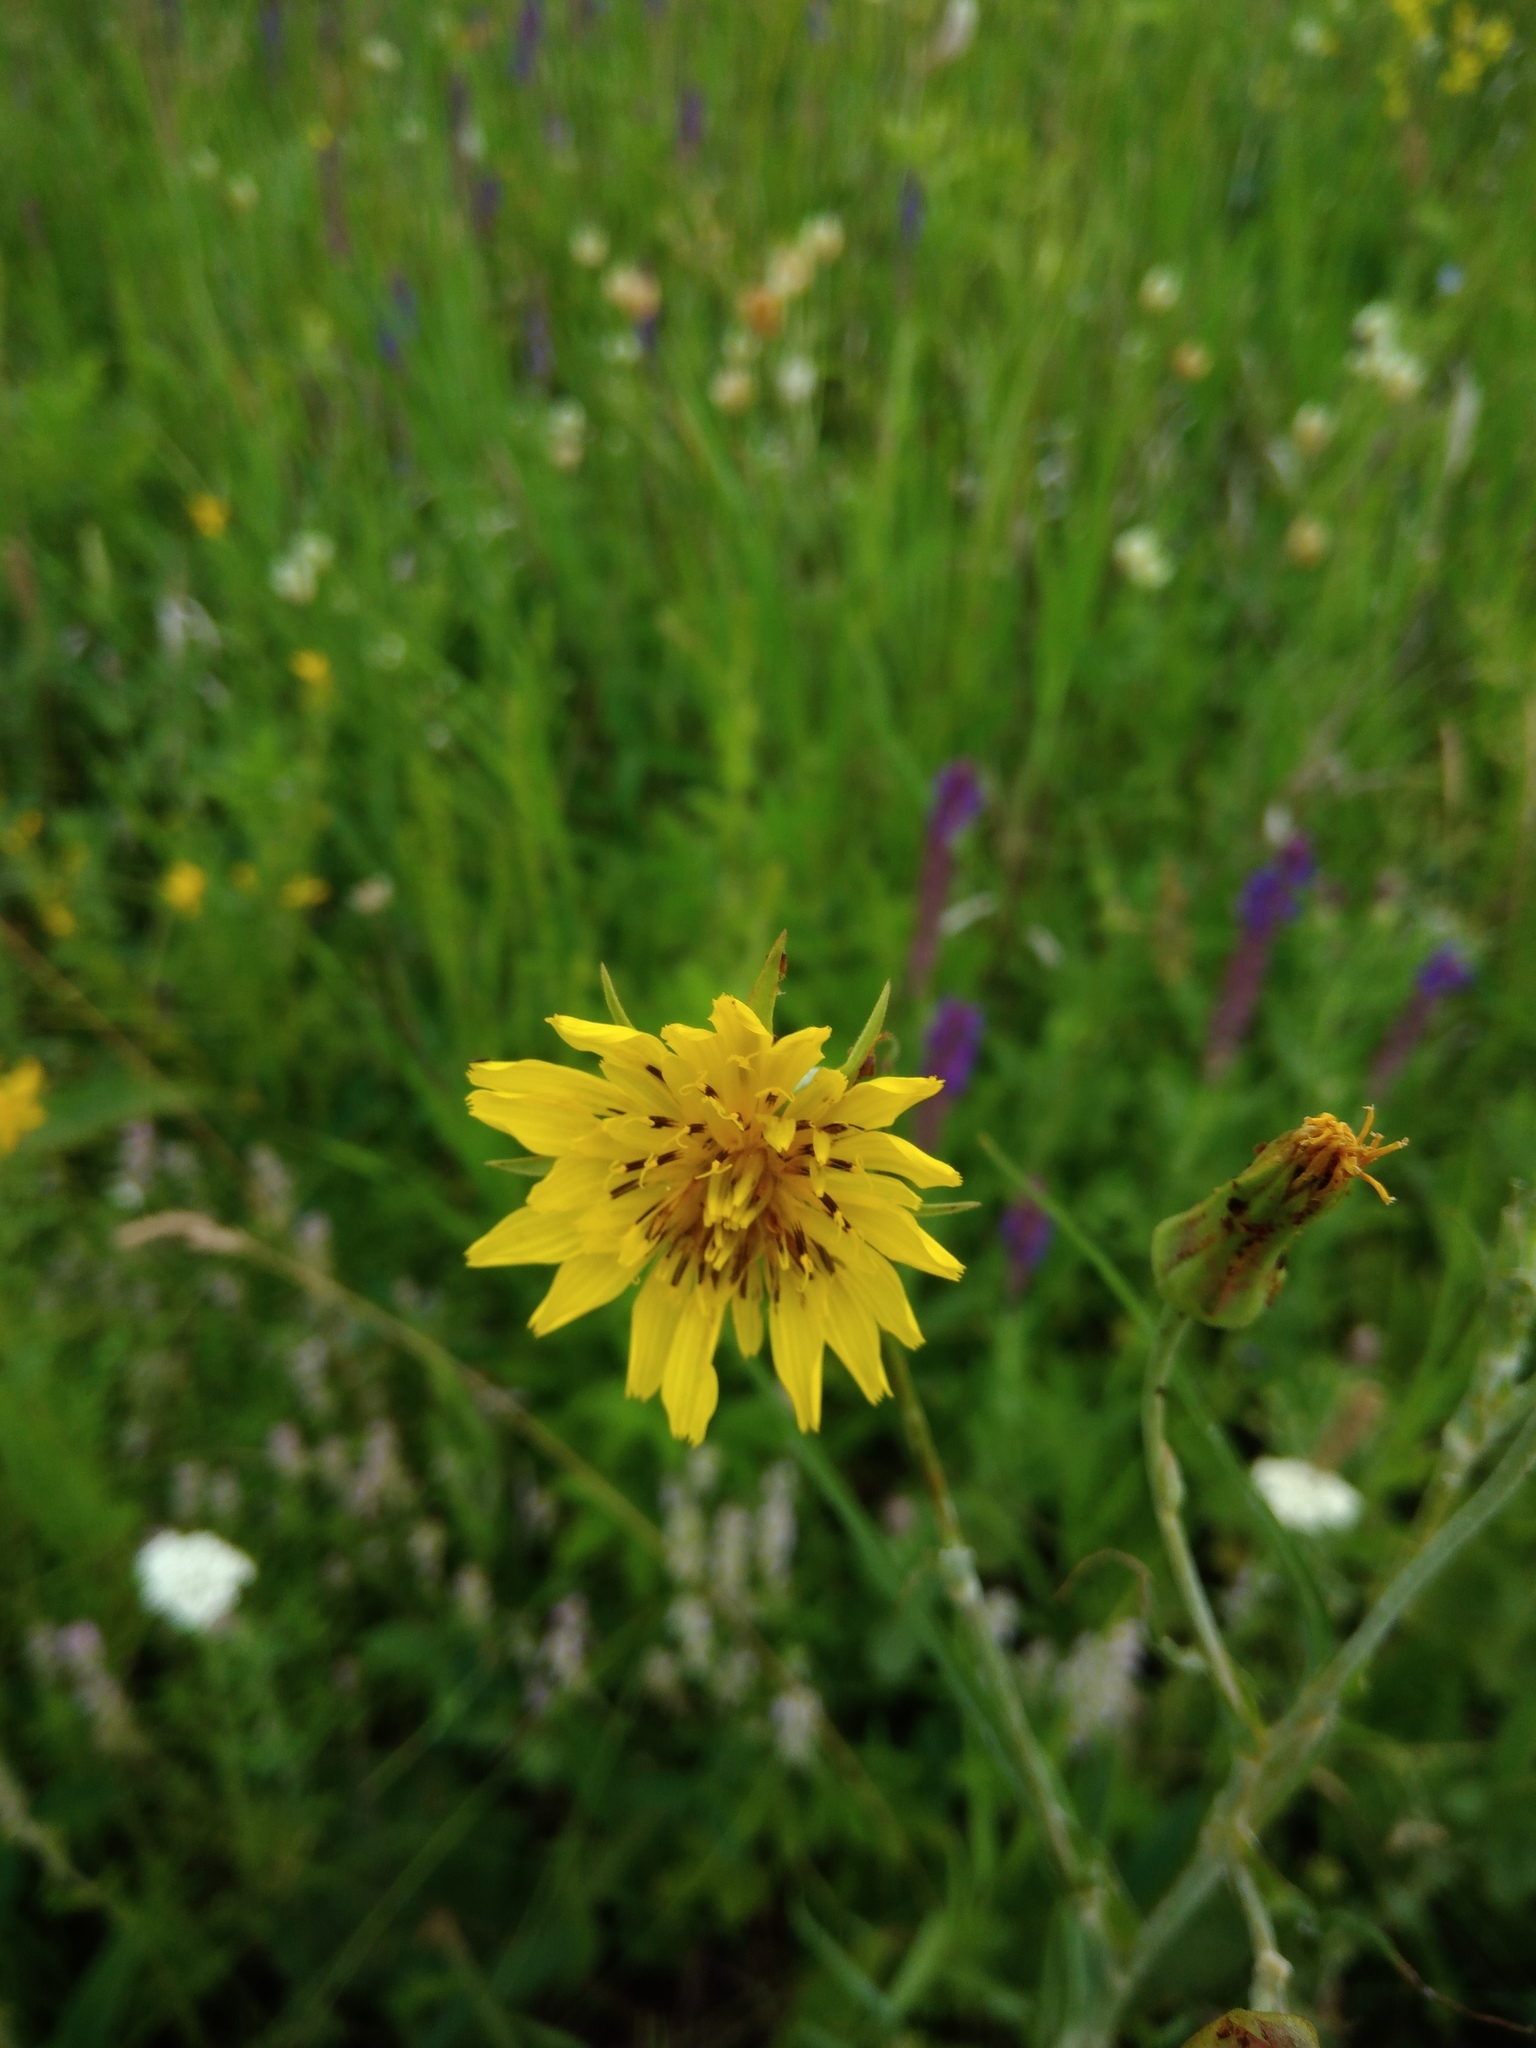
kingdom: Plantae
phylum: Tracheophyta
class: Magnoliopsida
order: Asterales
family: Asteraceae
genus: Tragopogon
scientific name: Tragopogon podolicus
